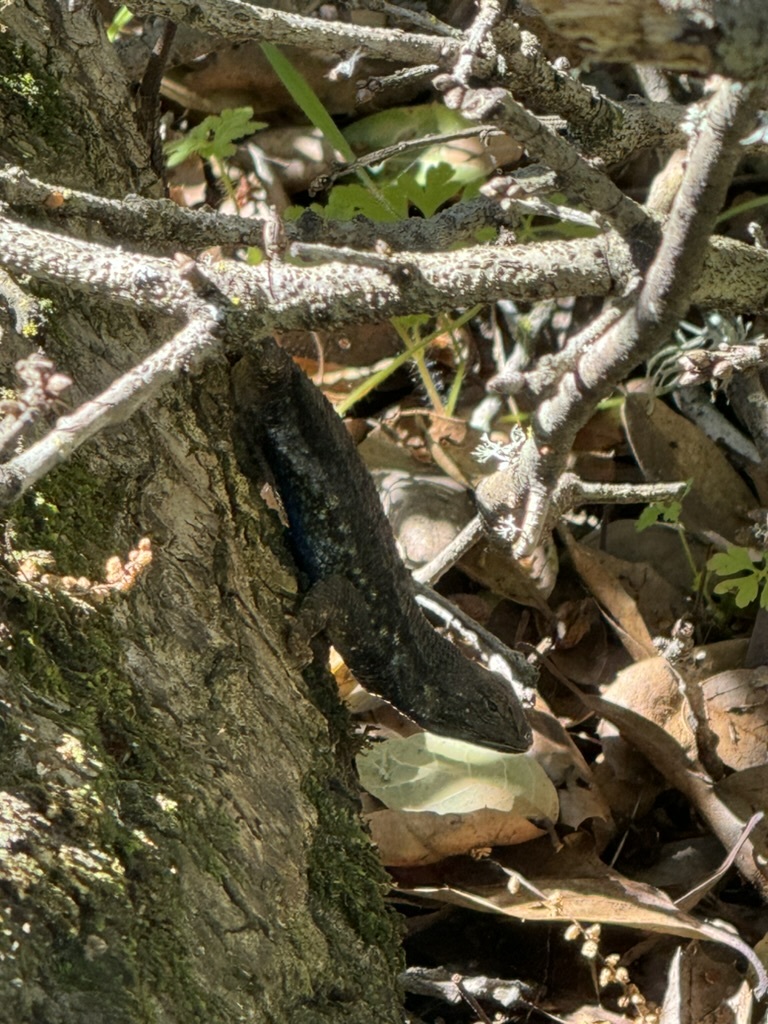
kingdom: Animalia
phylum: Chordata
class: Squamata
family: Phrynosomatidae
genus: Sceloporus
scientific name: Sceloporus occidentalis
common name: Western fence lizard
